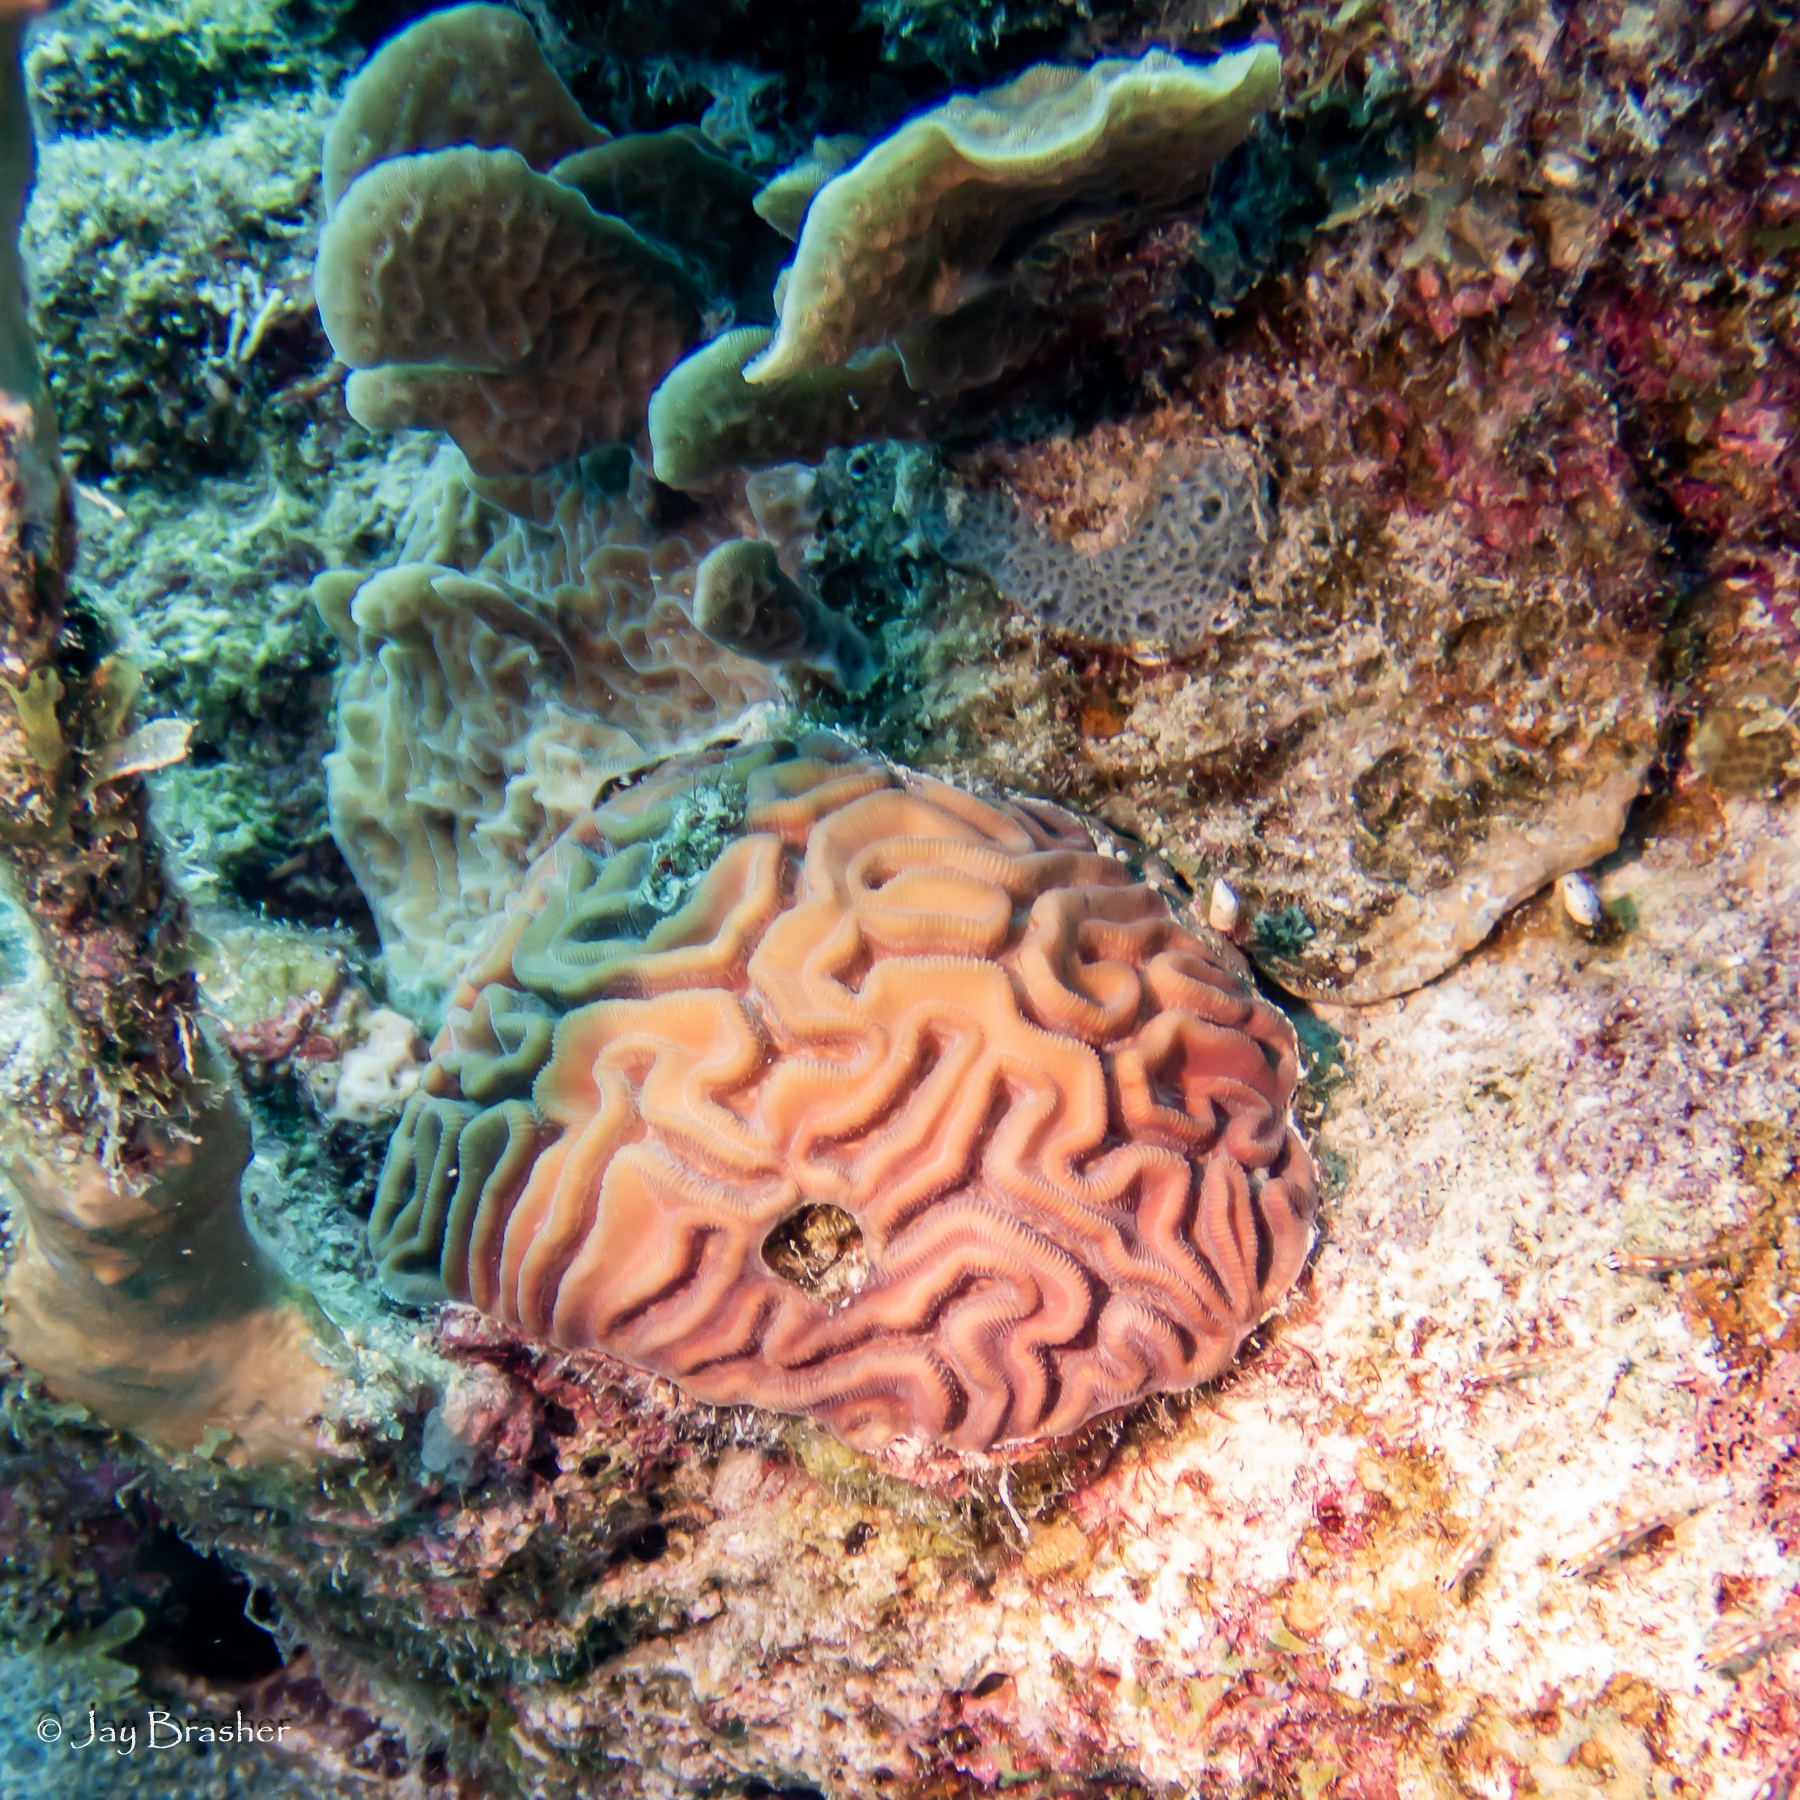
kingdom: Animalia
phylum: Cnidaria
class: Anthozoa
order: Scleractinia
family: Faviidae
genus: Diploria
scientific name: Diploria labyrinthiformis
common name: Grooved brain coral
